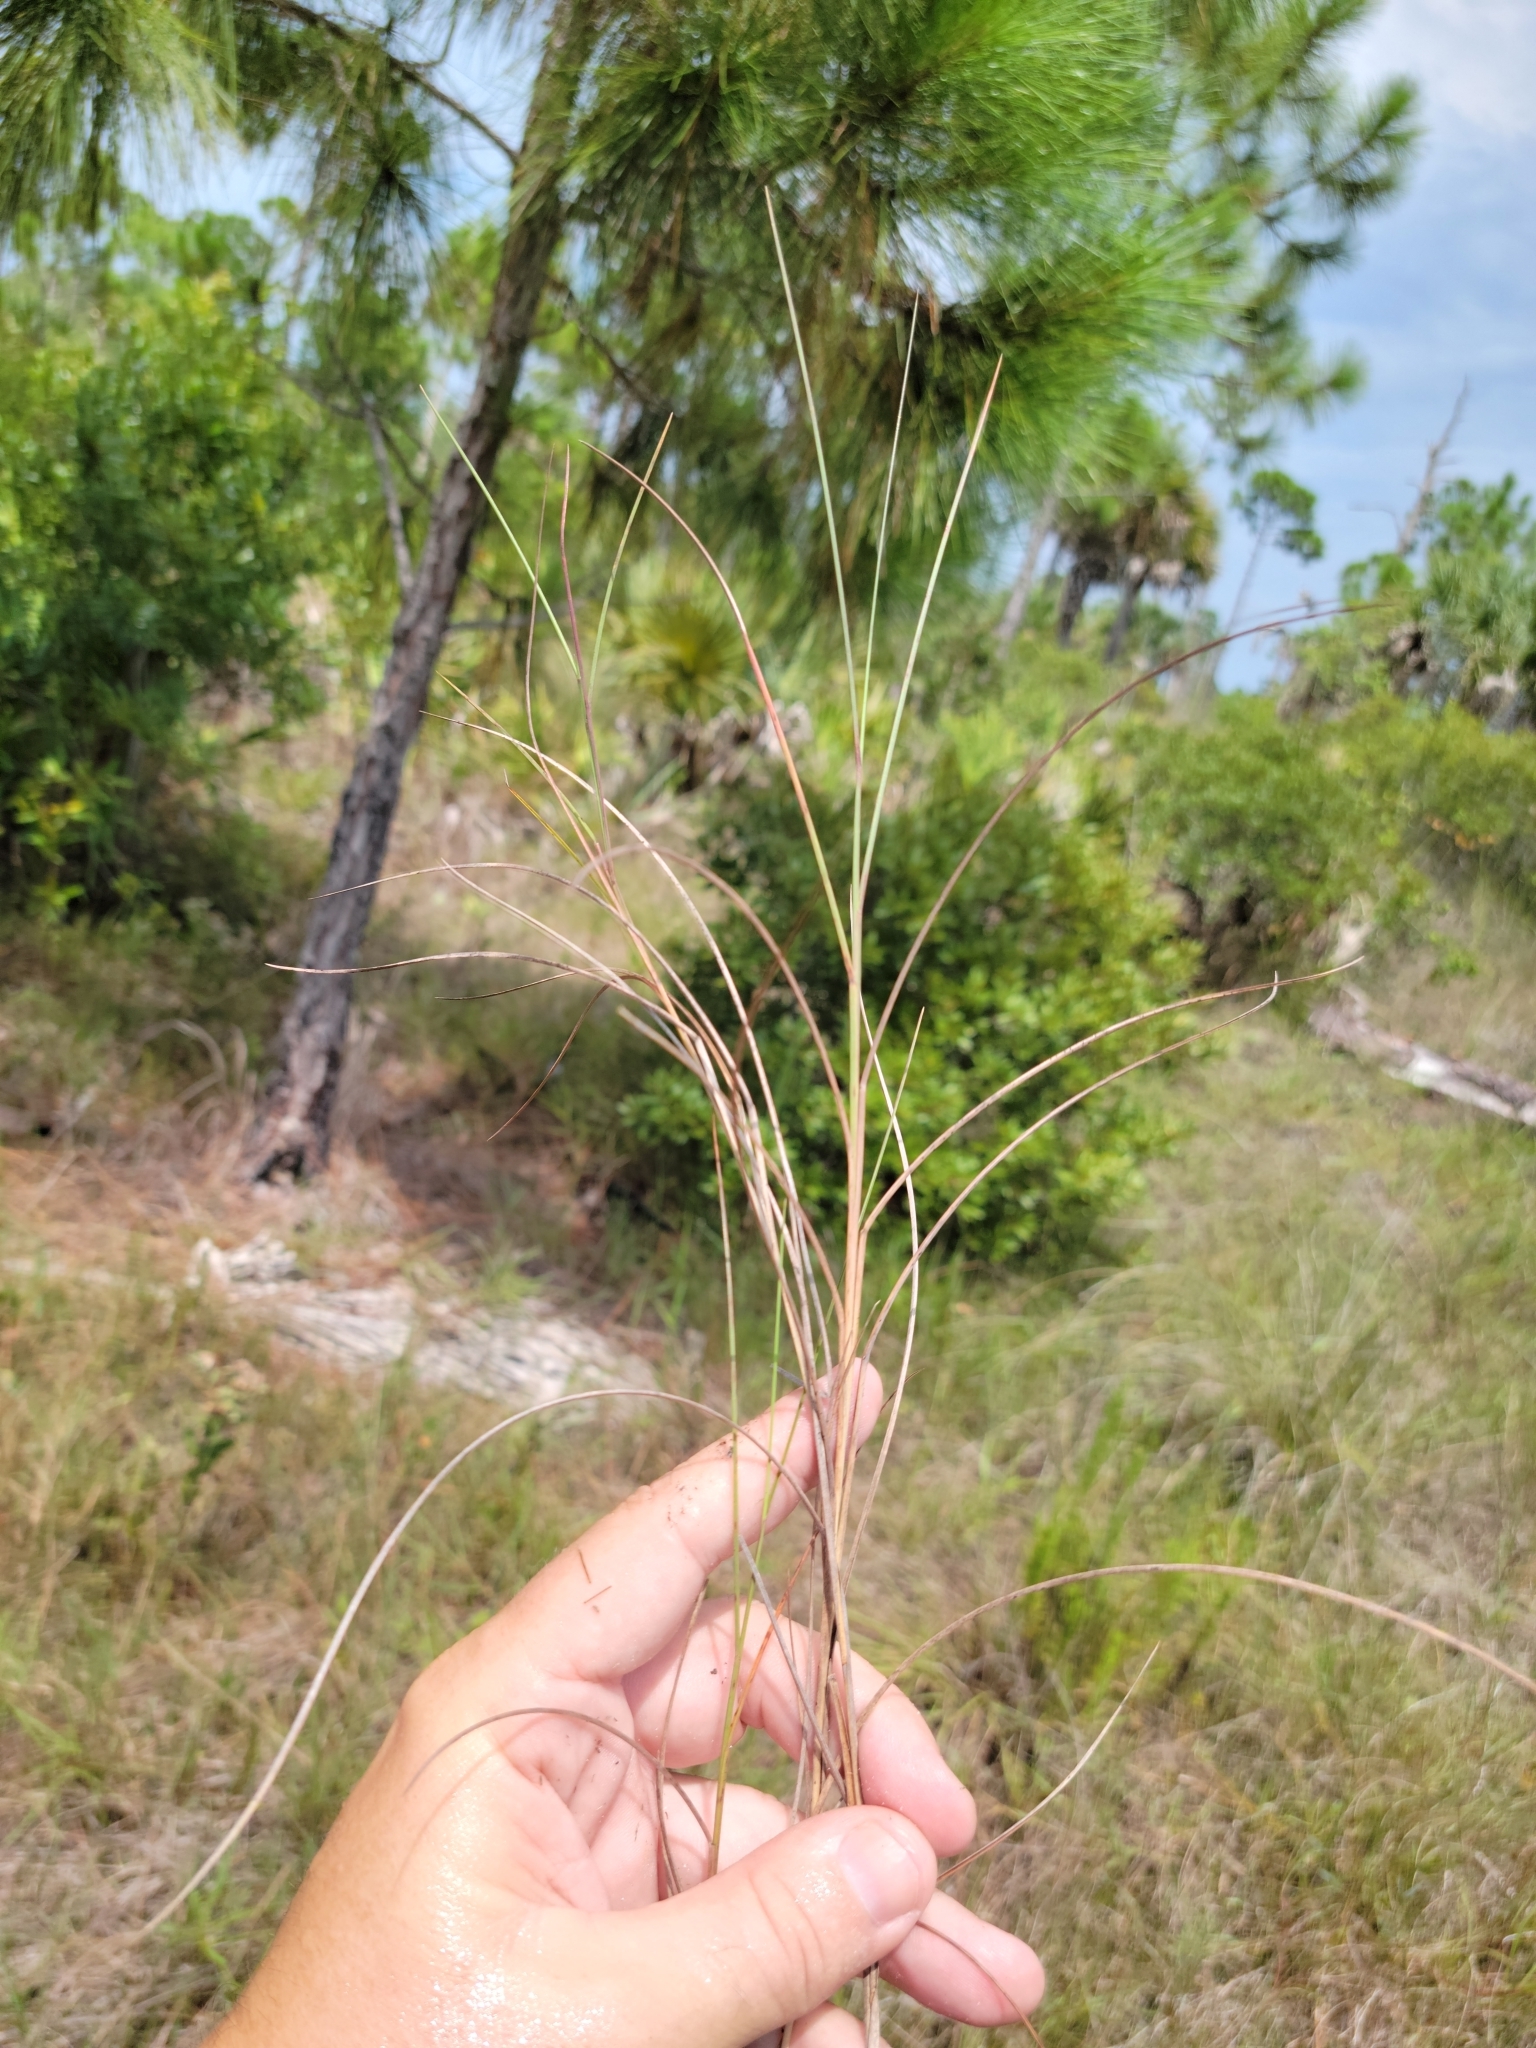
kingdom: Plantae
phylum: Tracheophyta
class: Liliopsida
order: Poales
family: Poaceae
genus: Schizachyrium
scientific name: Schizachyrium rhizomatum
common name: Florida little bluestem
